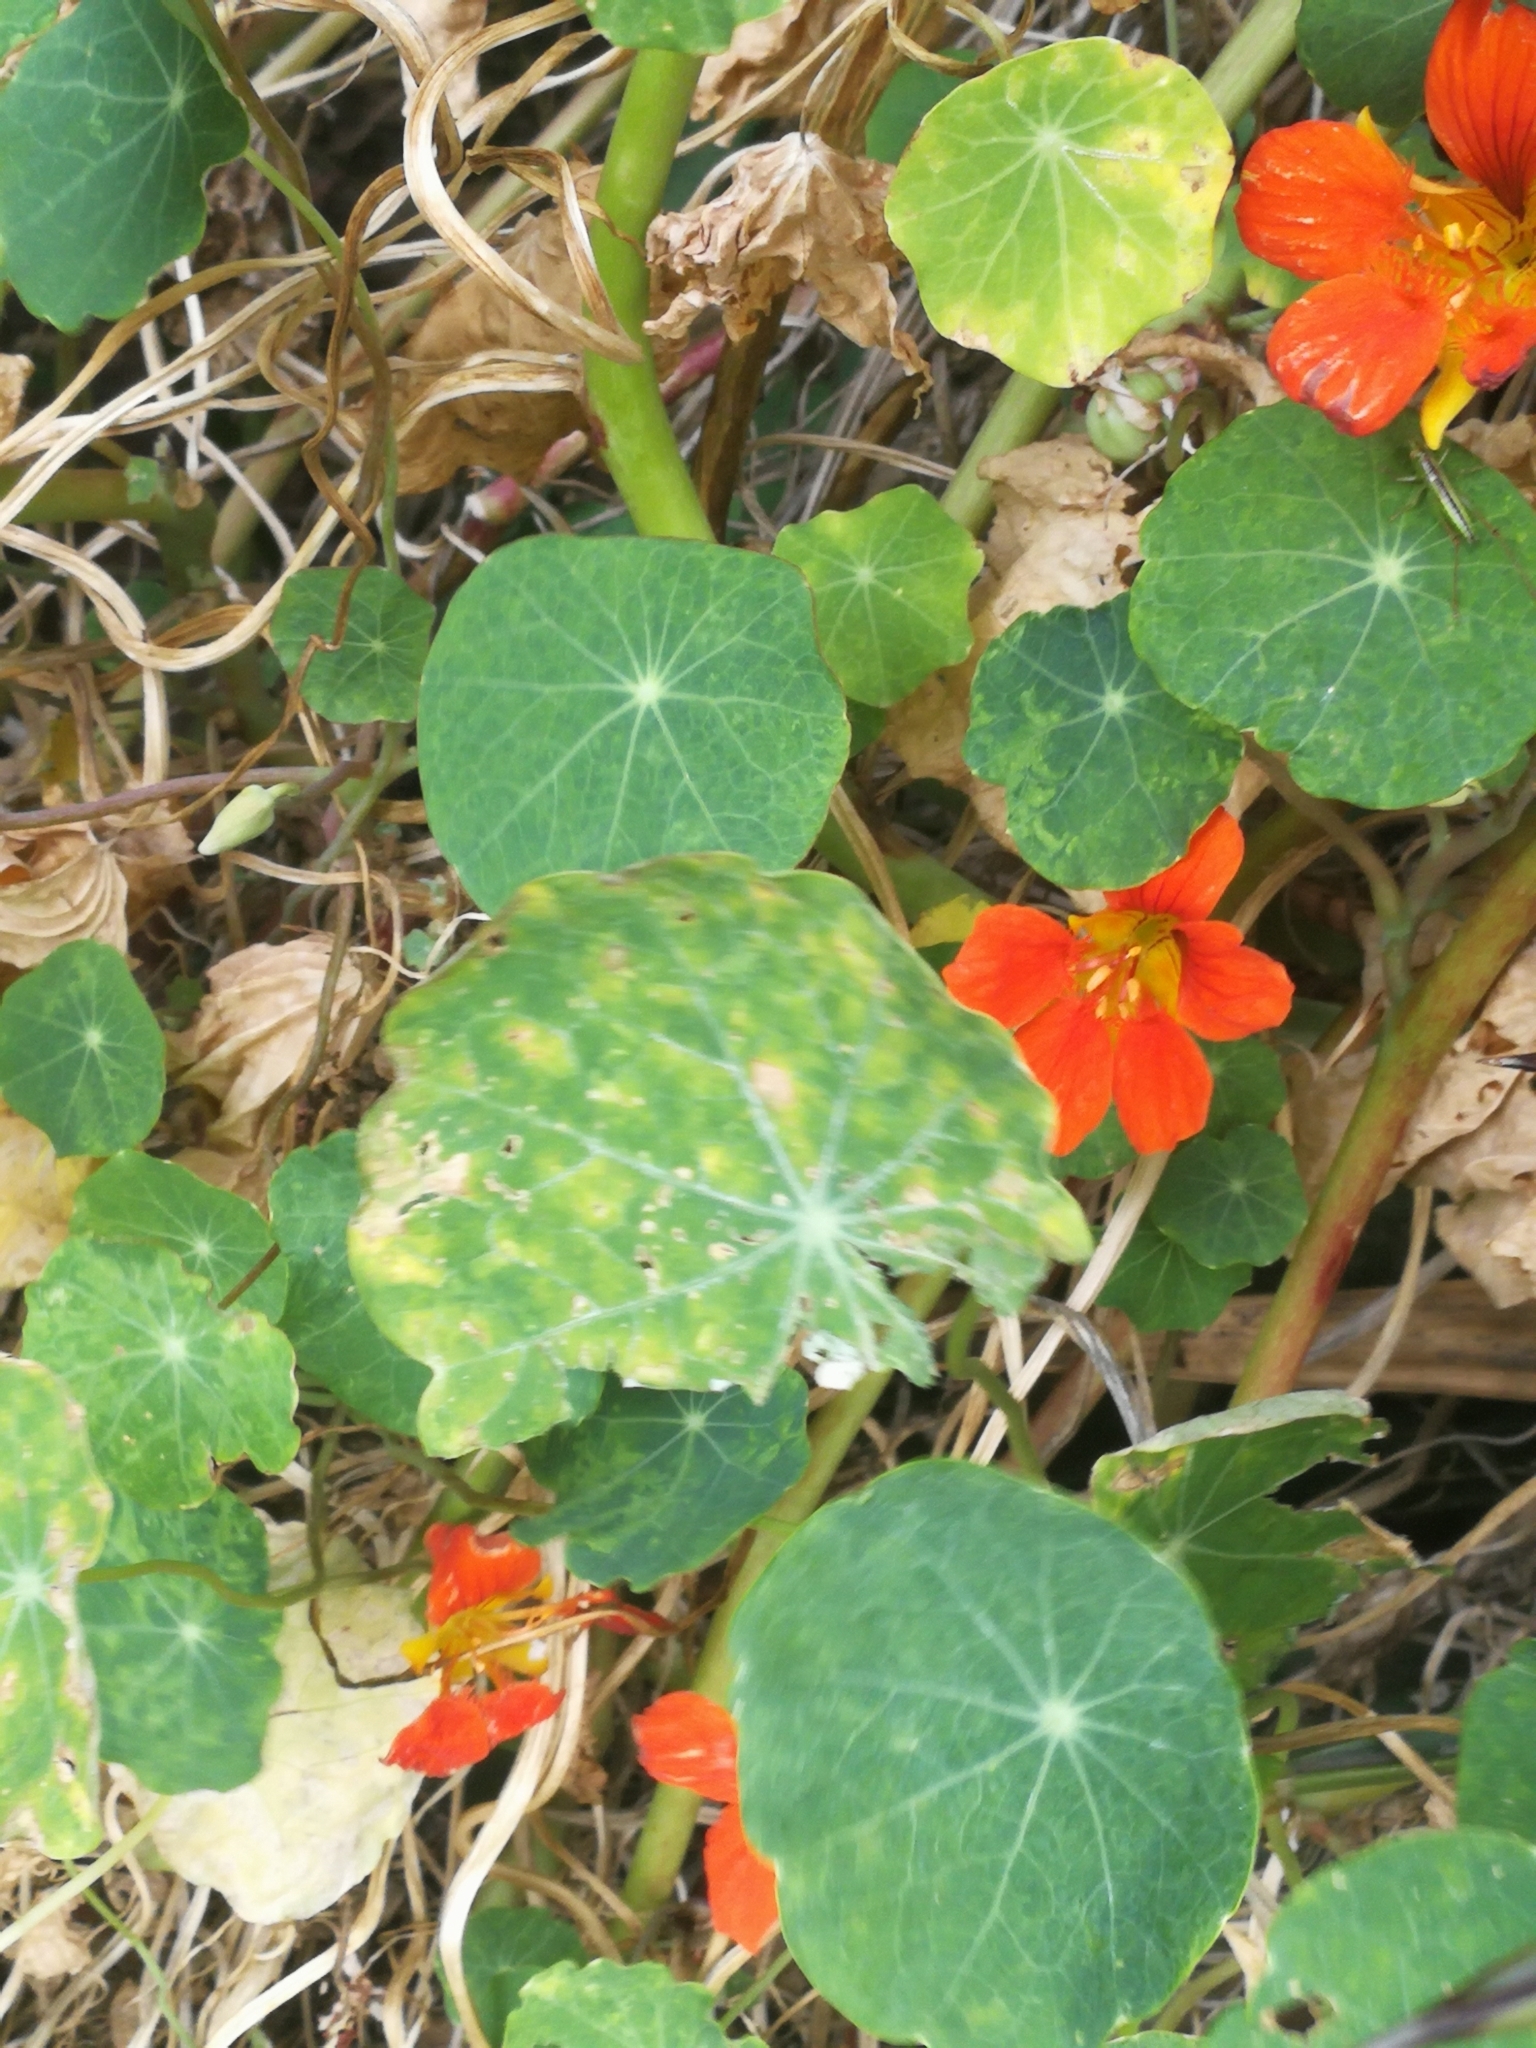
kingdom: Plantae
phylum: Tracheophyta
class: Magnoliopsida
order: Brassicales
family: Tropaeolaceae
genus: Tropaeolum
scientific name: Tropaeolum majus
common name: Nasturtium
